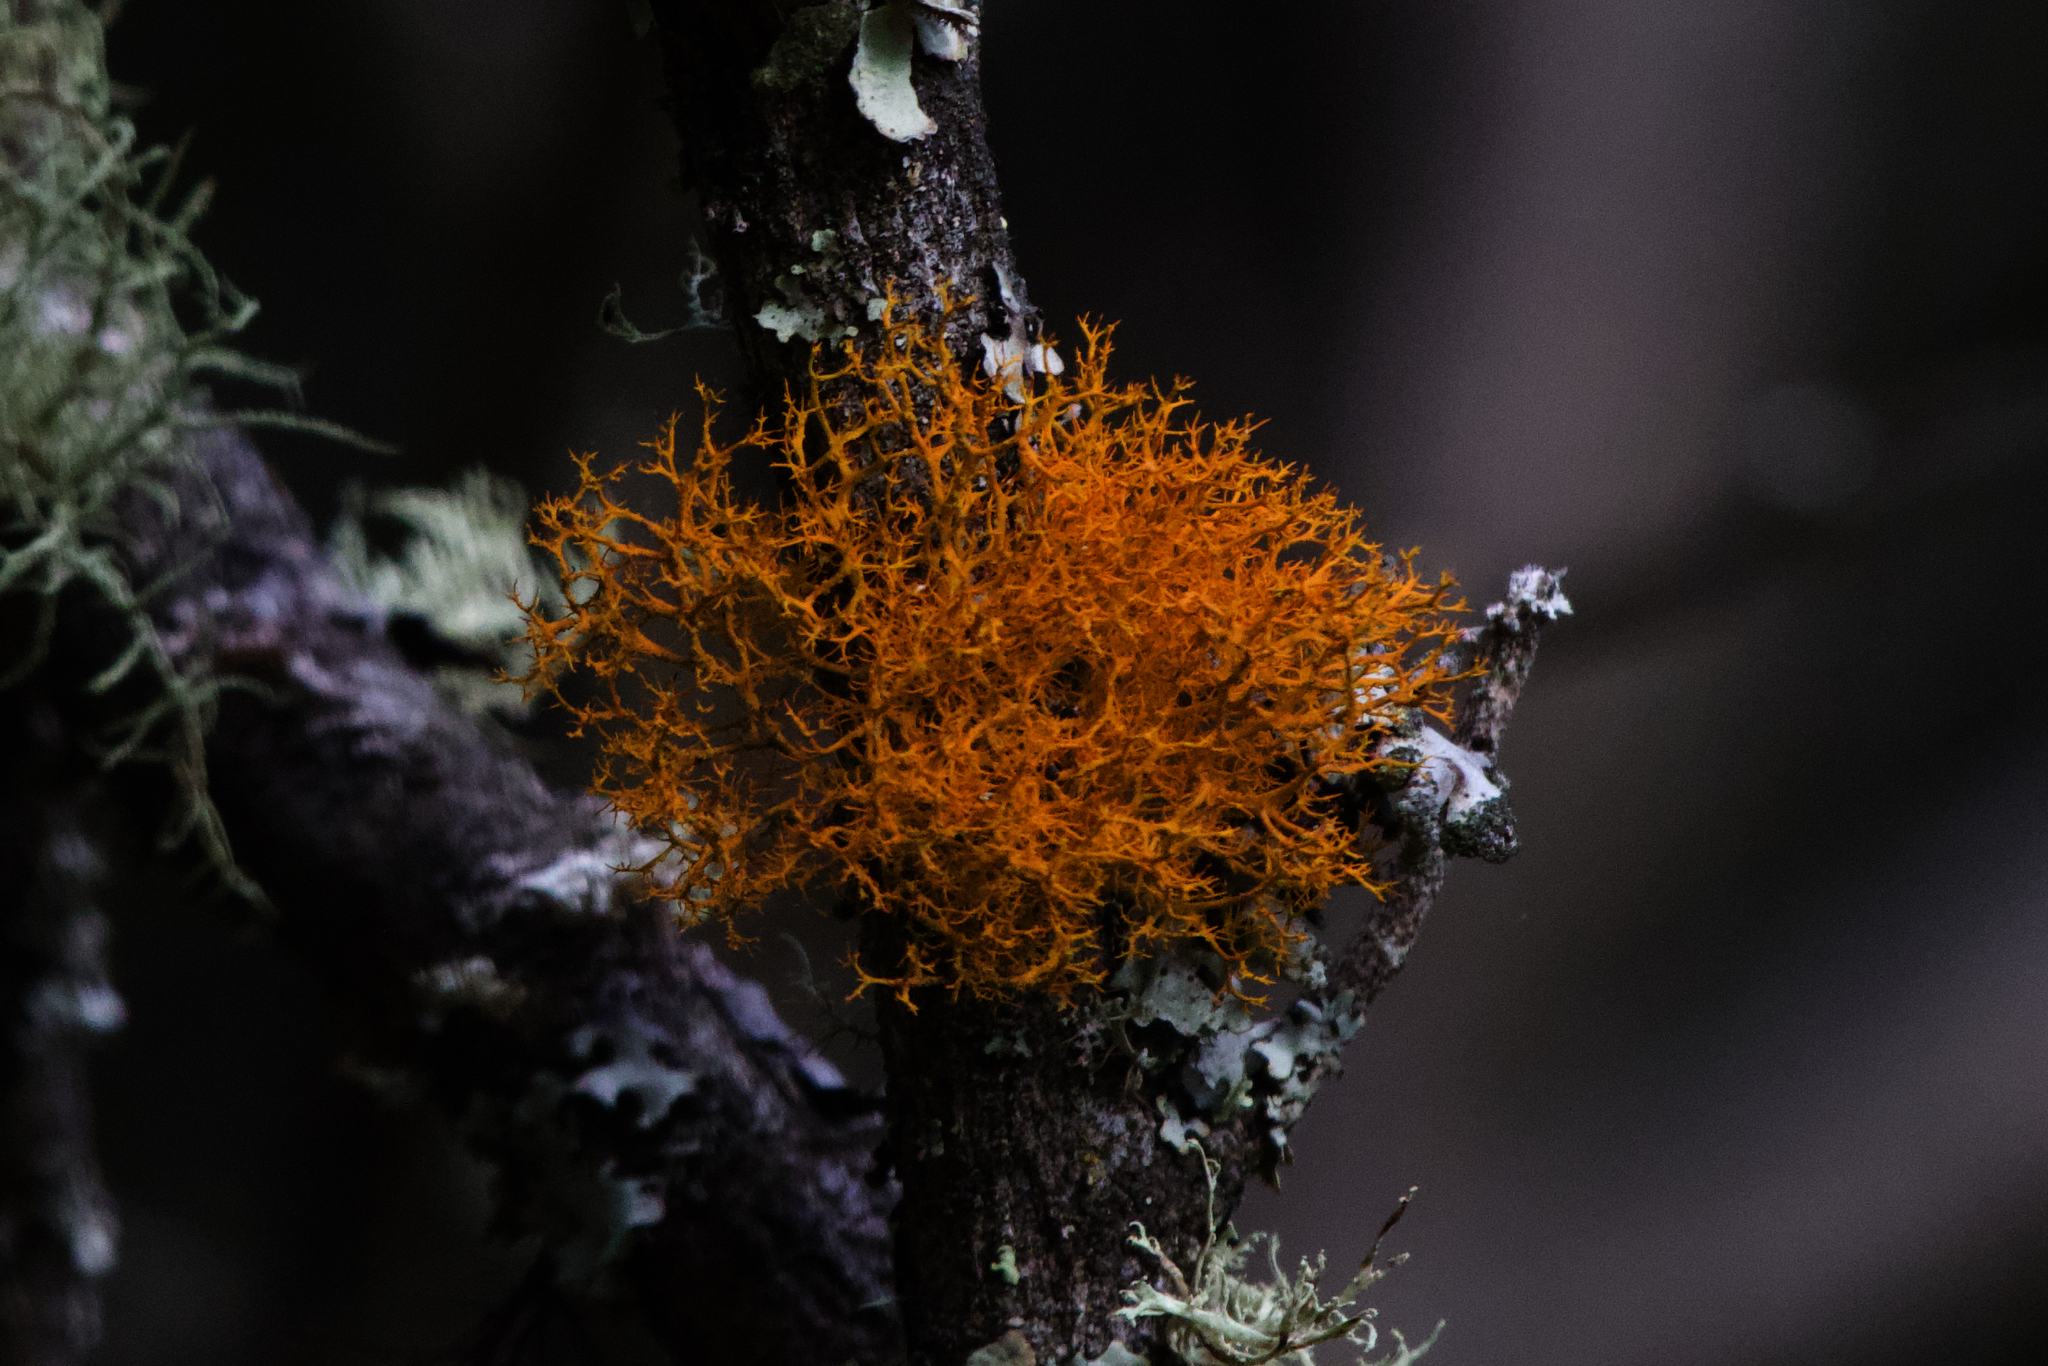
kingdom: Fungi
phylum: Ascomycota
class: Lecanoromycetes
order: Teloschistales
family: Teloschistaceae
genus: Teloschistes
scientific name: Teloschistes flavicans
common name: Golden hair-lichen
